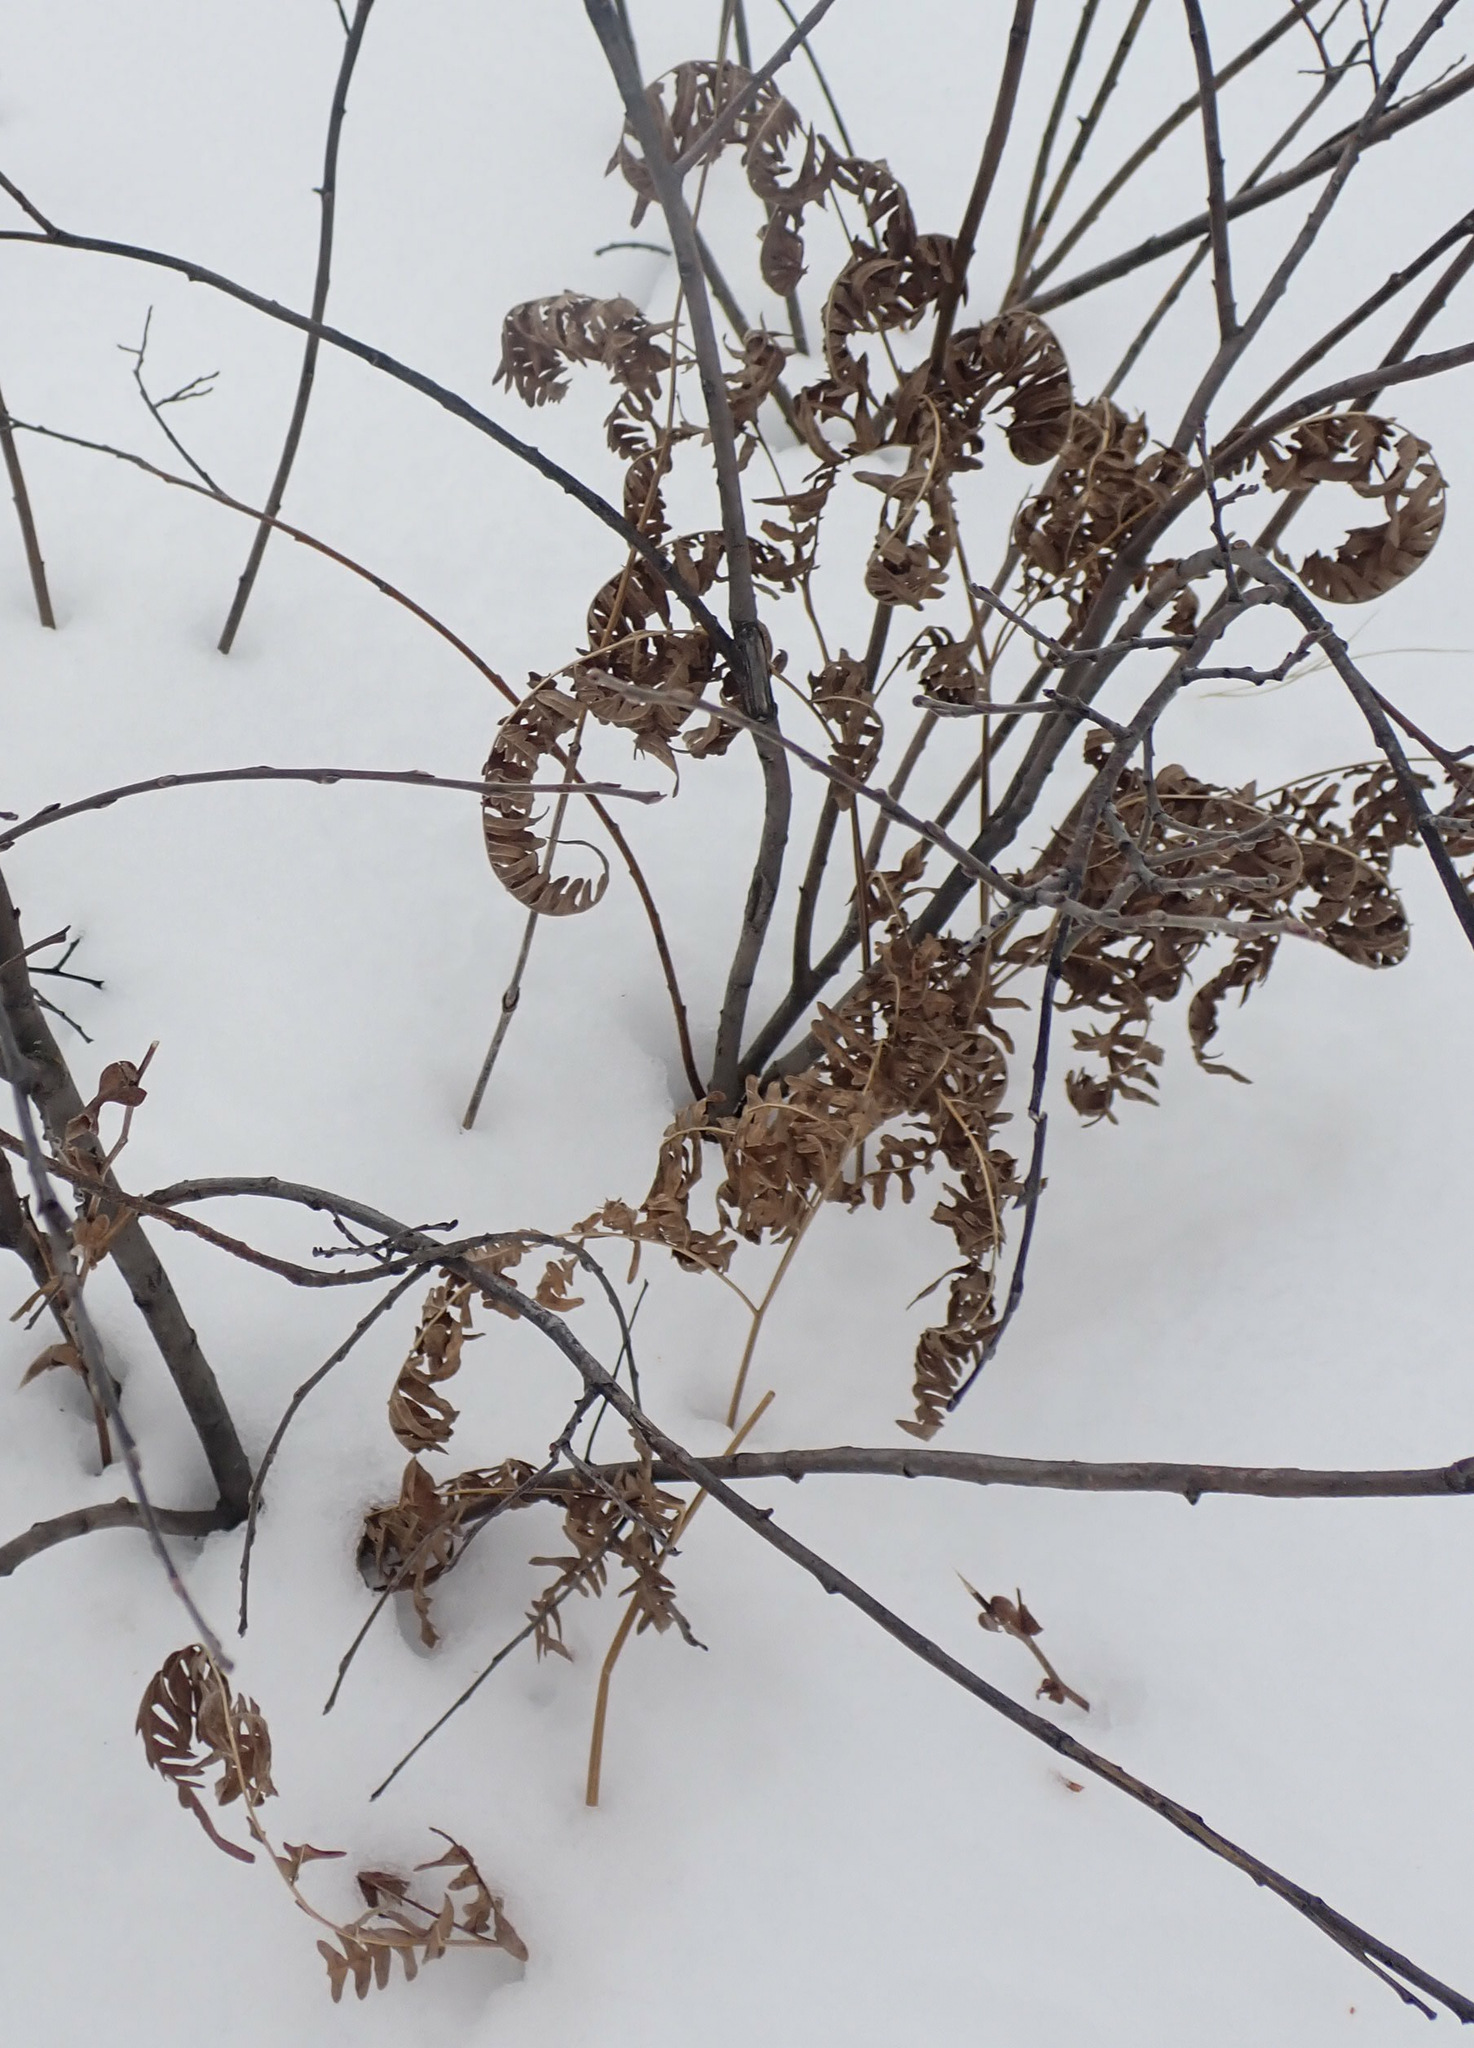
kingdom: Plantae
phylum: Tracheophyta
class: Polypodiopsida
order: Polypodiales
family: Dennstaedtiaceae
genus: Pteridium
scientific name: Pteridium aquilinum
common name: Bracken
